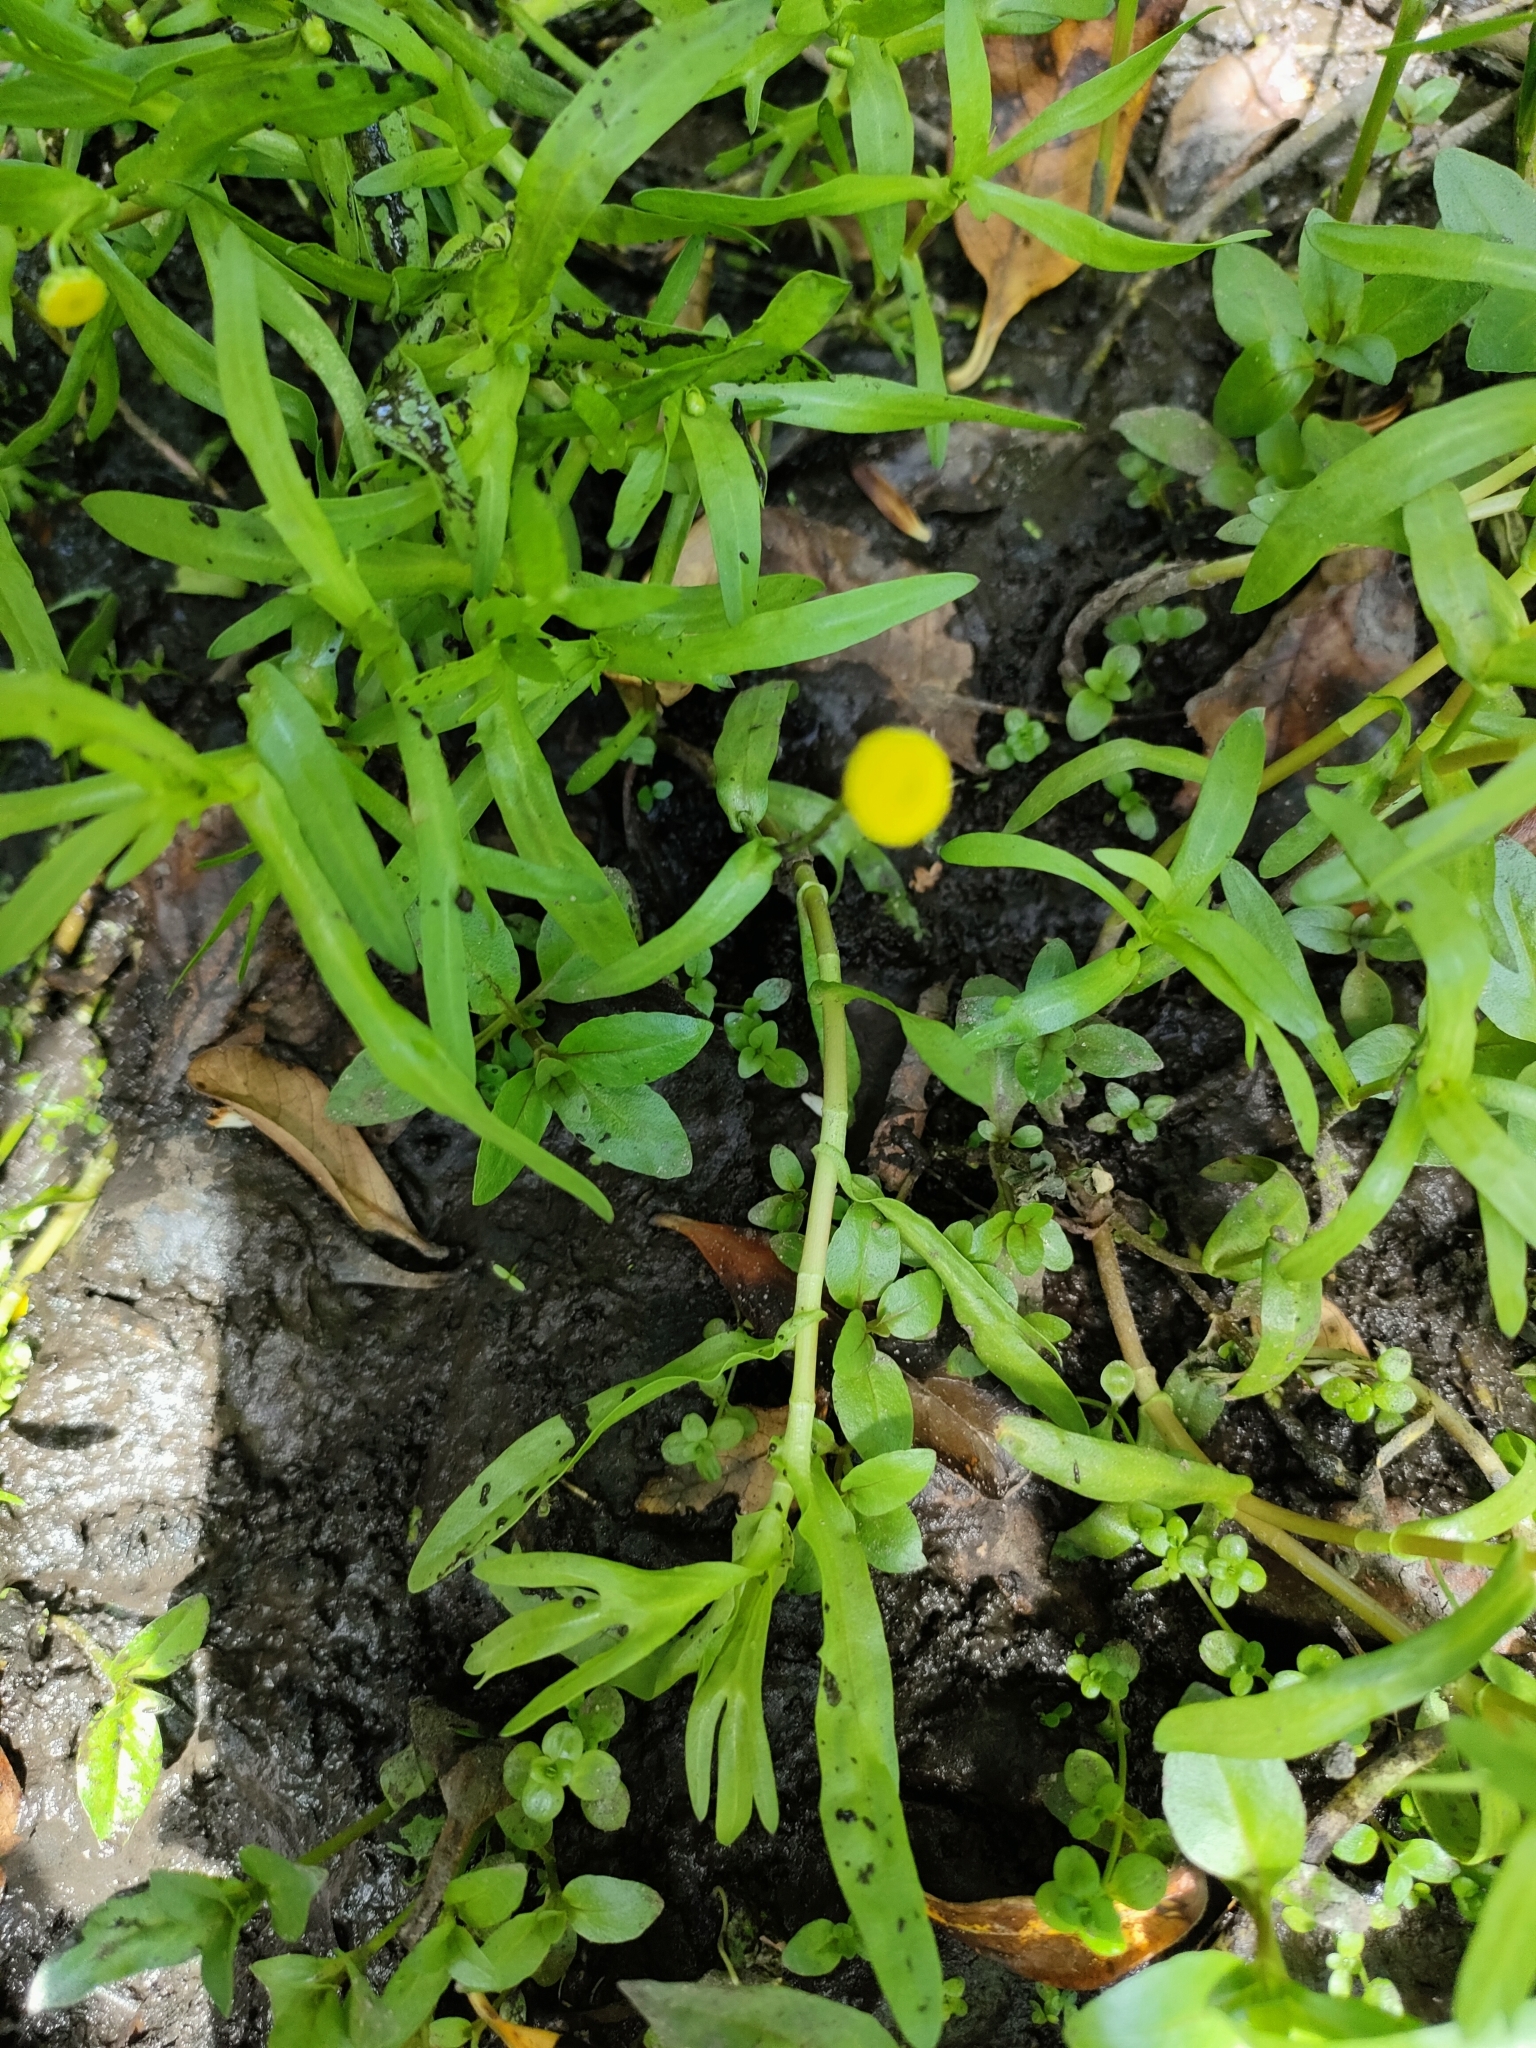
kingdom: Plantae
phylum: Tracheophyta
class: Magnoliopsida
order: Asterales
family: Asteraceae
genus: Cotula
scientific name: Cotula coronopifolia
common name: Buttonweed
